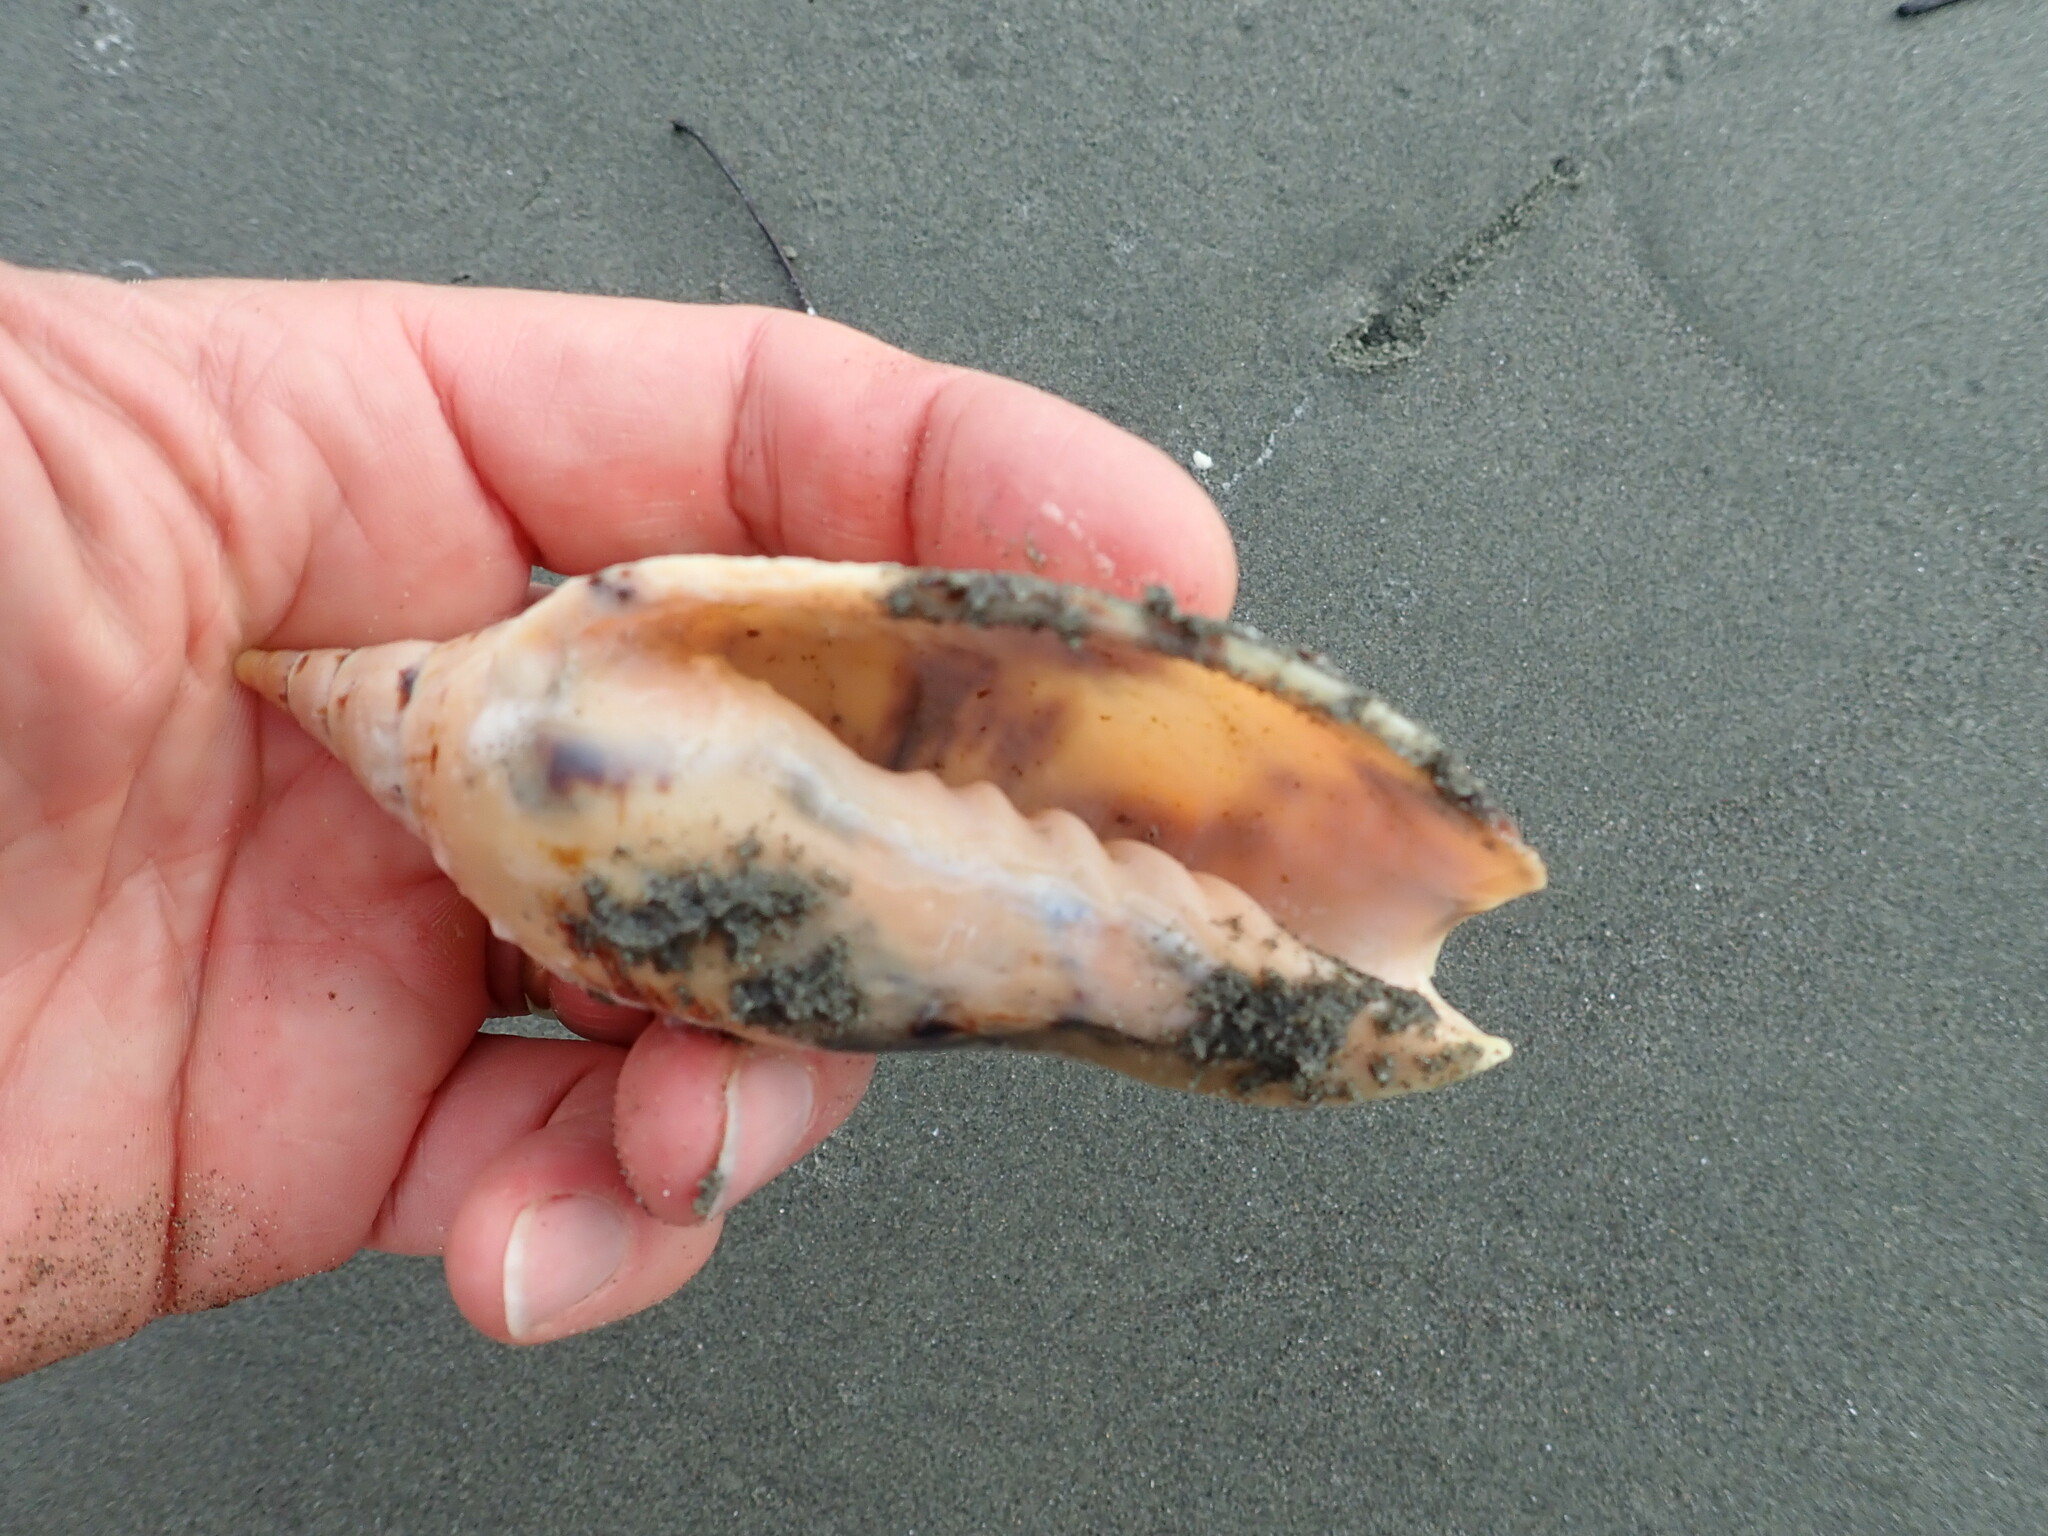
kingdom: Animalia
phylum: Mollusca
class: Gastropoda
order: Neogastropoda
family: Volutidae
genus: Alcithoe
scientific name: Alcithoe arabica
